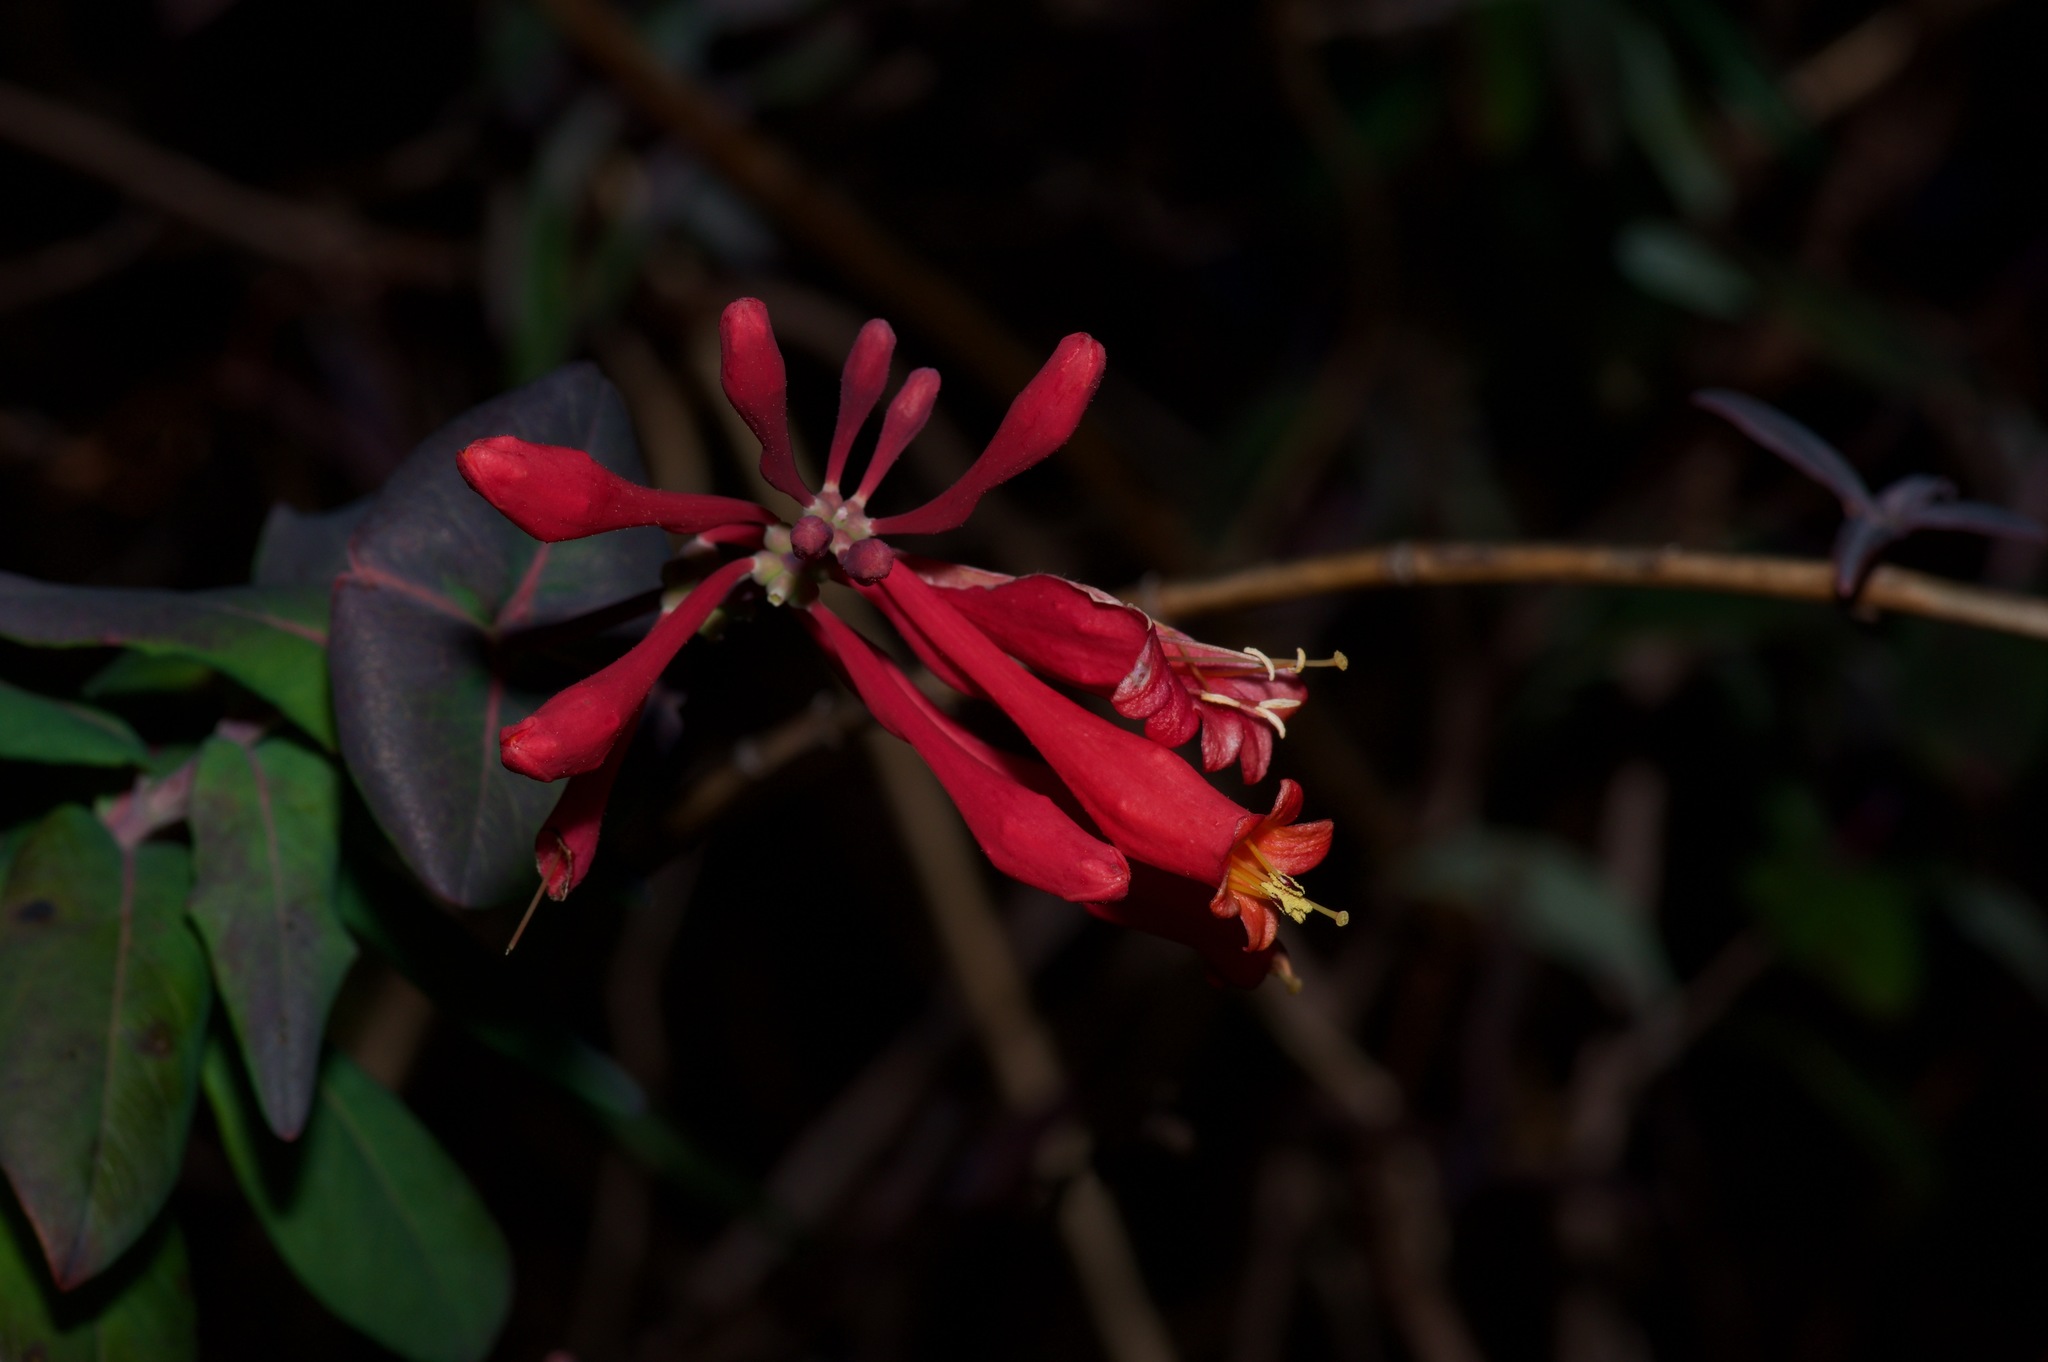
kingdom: Plantae
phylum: Tracheophyta
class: Magnoliopsida
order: Dipsacales
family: Caprifoliaceae
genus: Lonicera
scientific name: Lonicera sempervirens
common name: Coral honeysuckle
